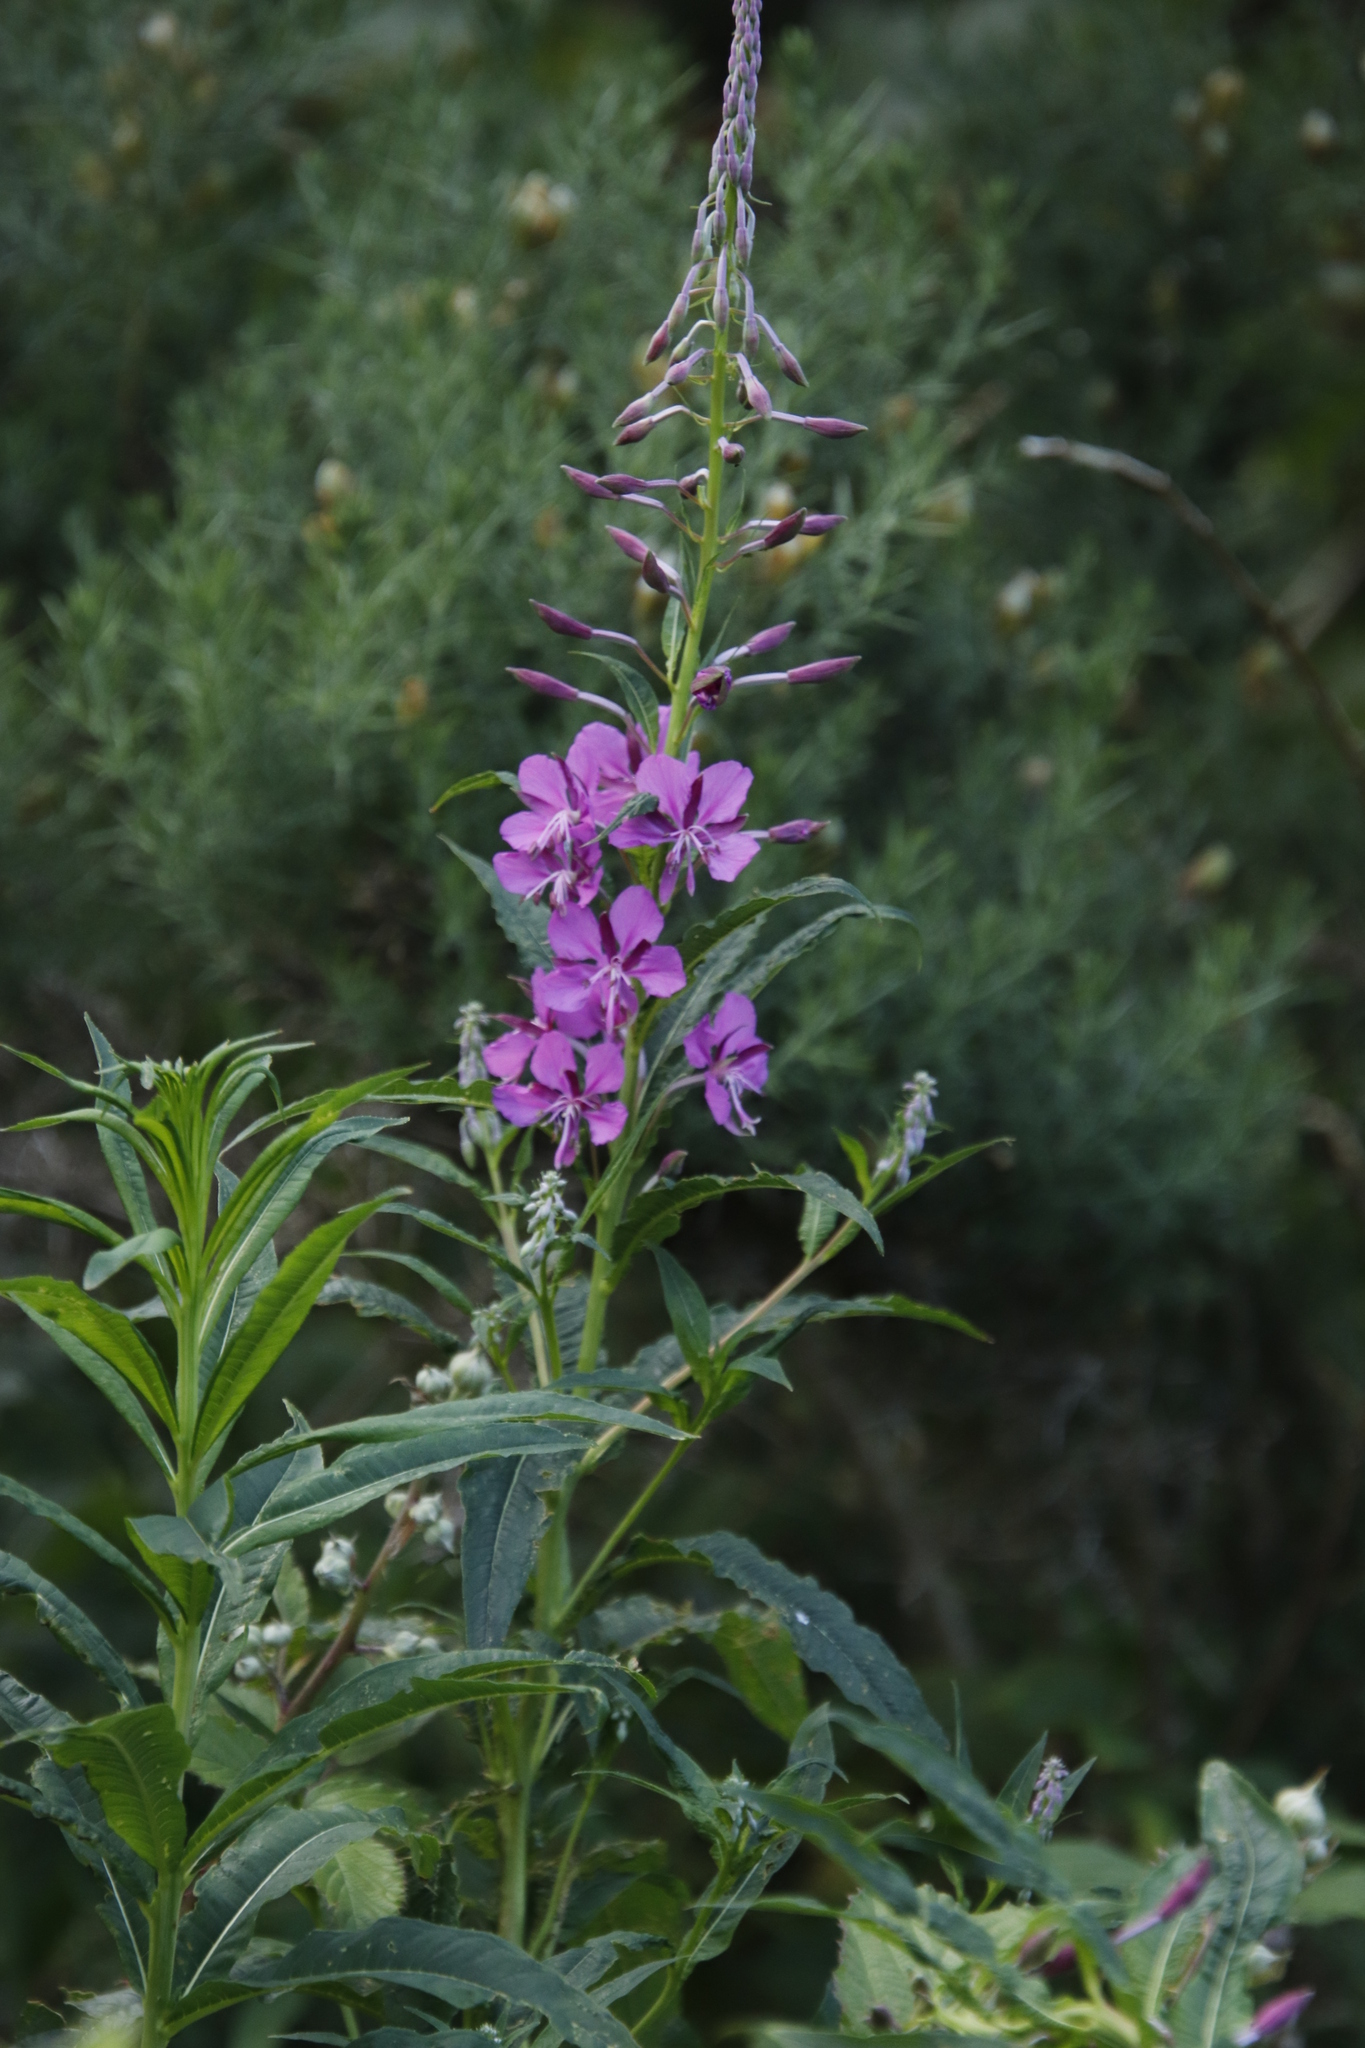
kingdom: Plantae
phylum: Tracheophyta
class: Magnoliopsida
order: Myrtales
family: Onagraceae
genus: Chamaenerion
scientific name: Chamaenerion angustifolium
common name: Fireweed
